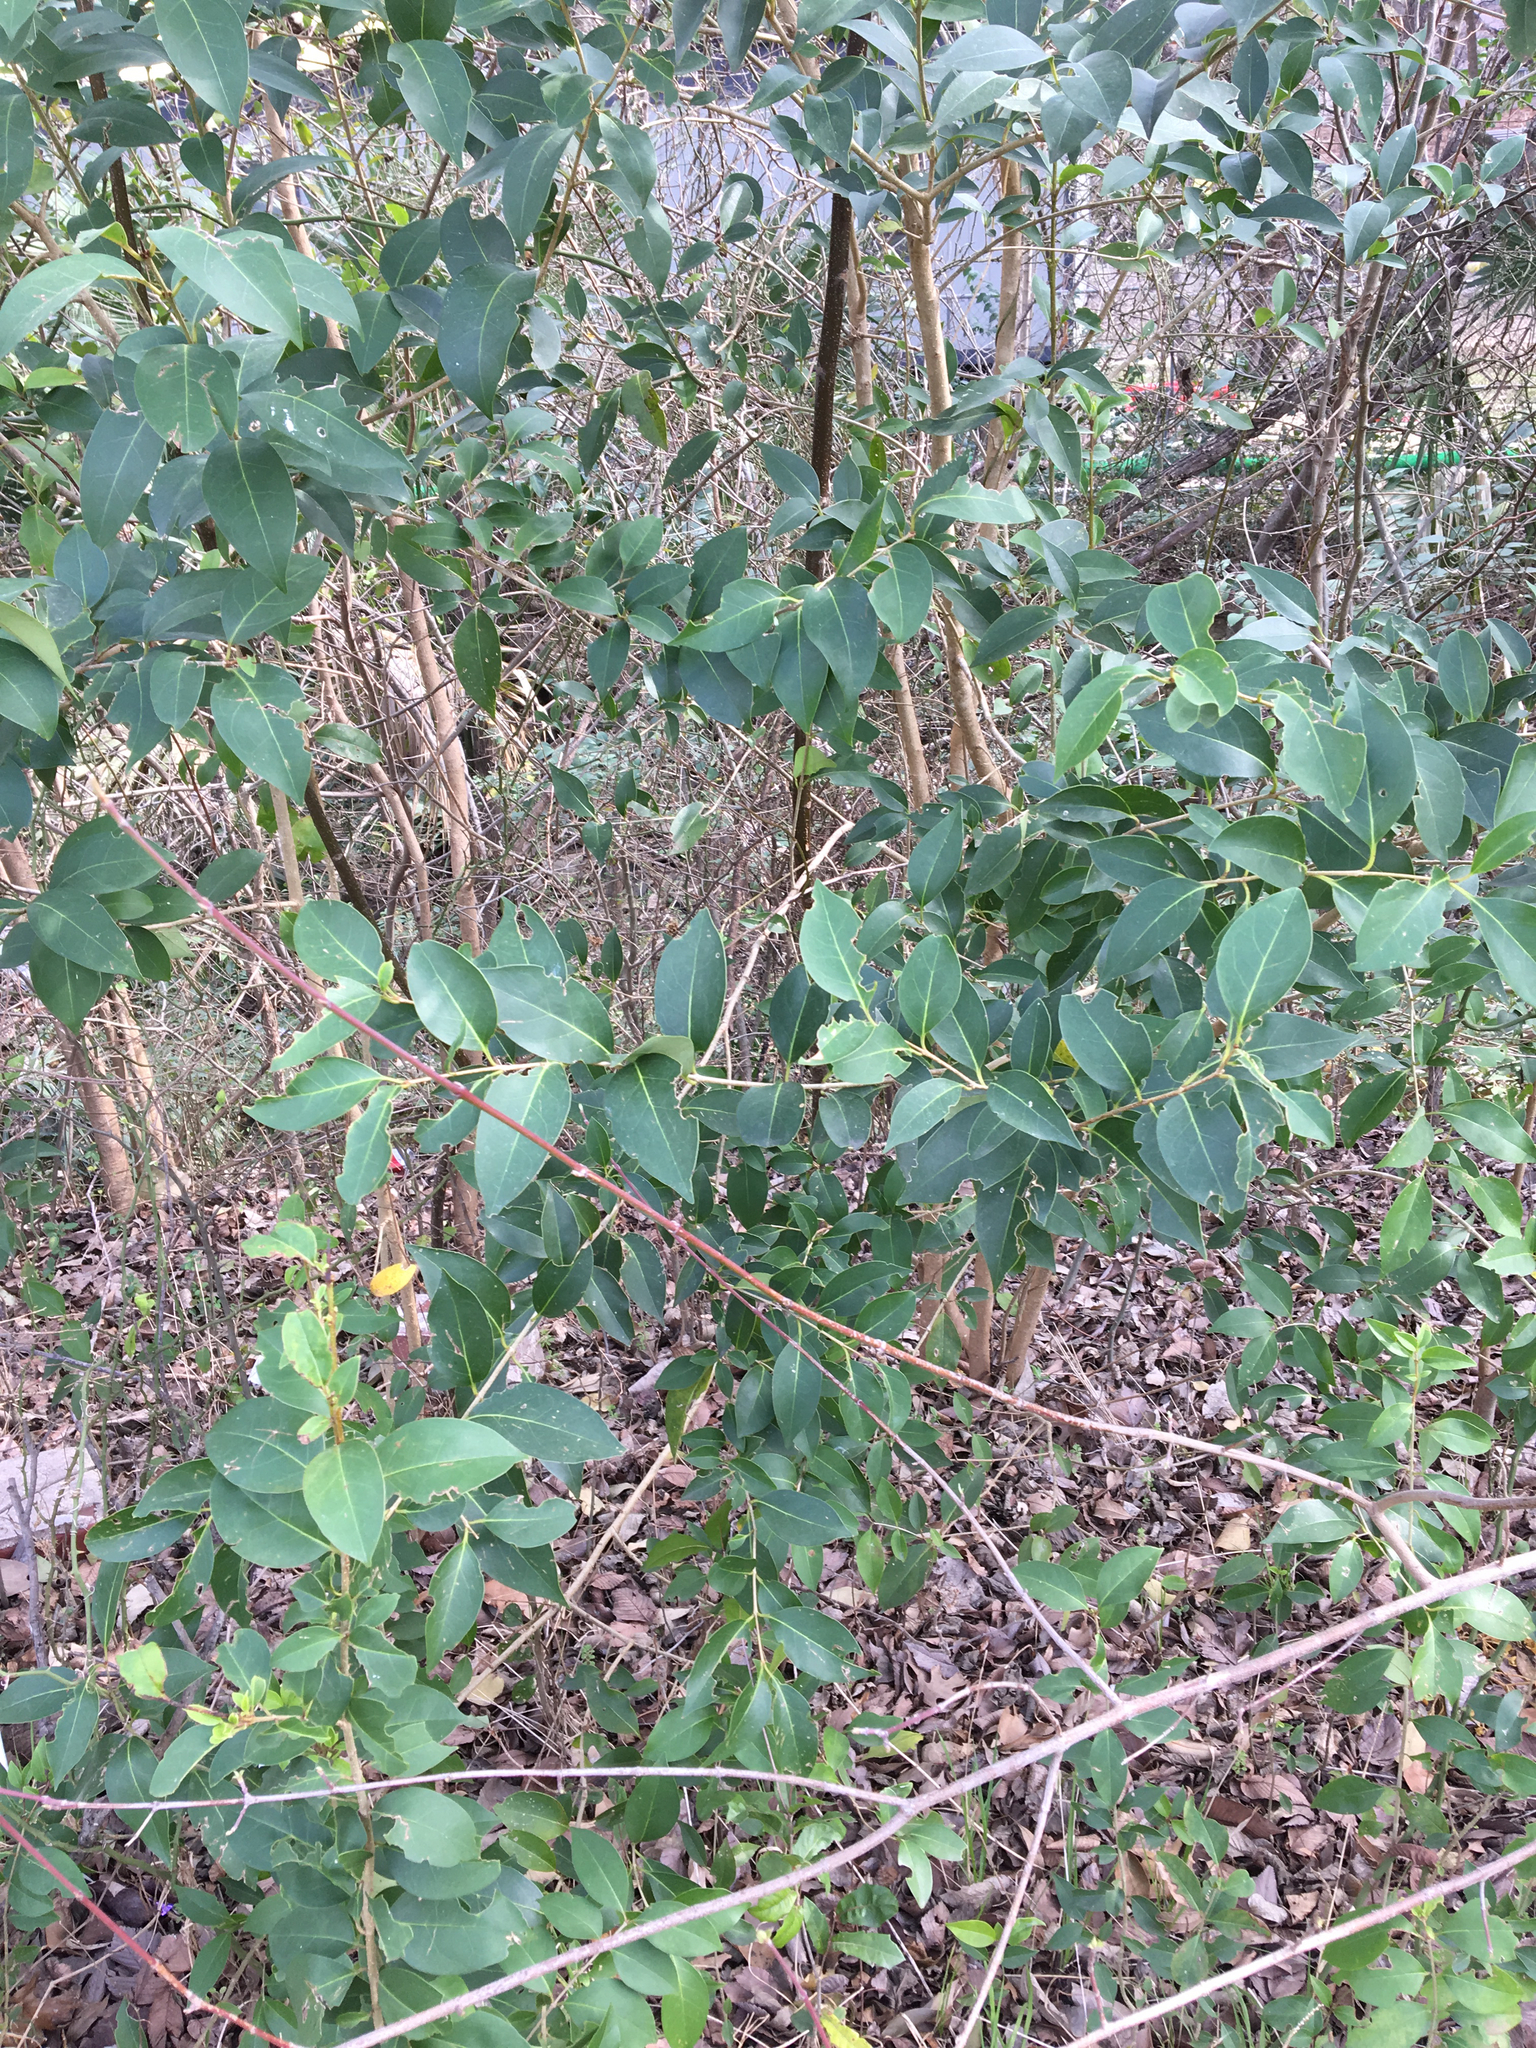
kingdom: Plantae
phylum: Tracheophyta
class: Magnoliopsida
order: Lamiales
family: Oleaceae
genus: Ligustrum
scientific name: Ligustrum lucidum
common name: Glossy privet
